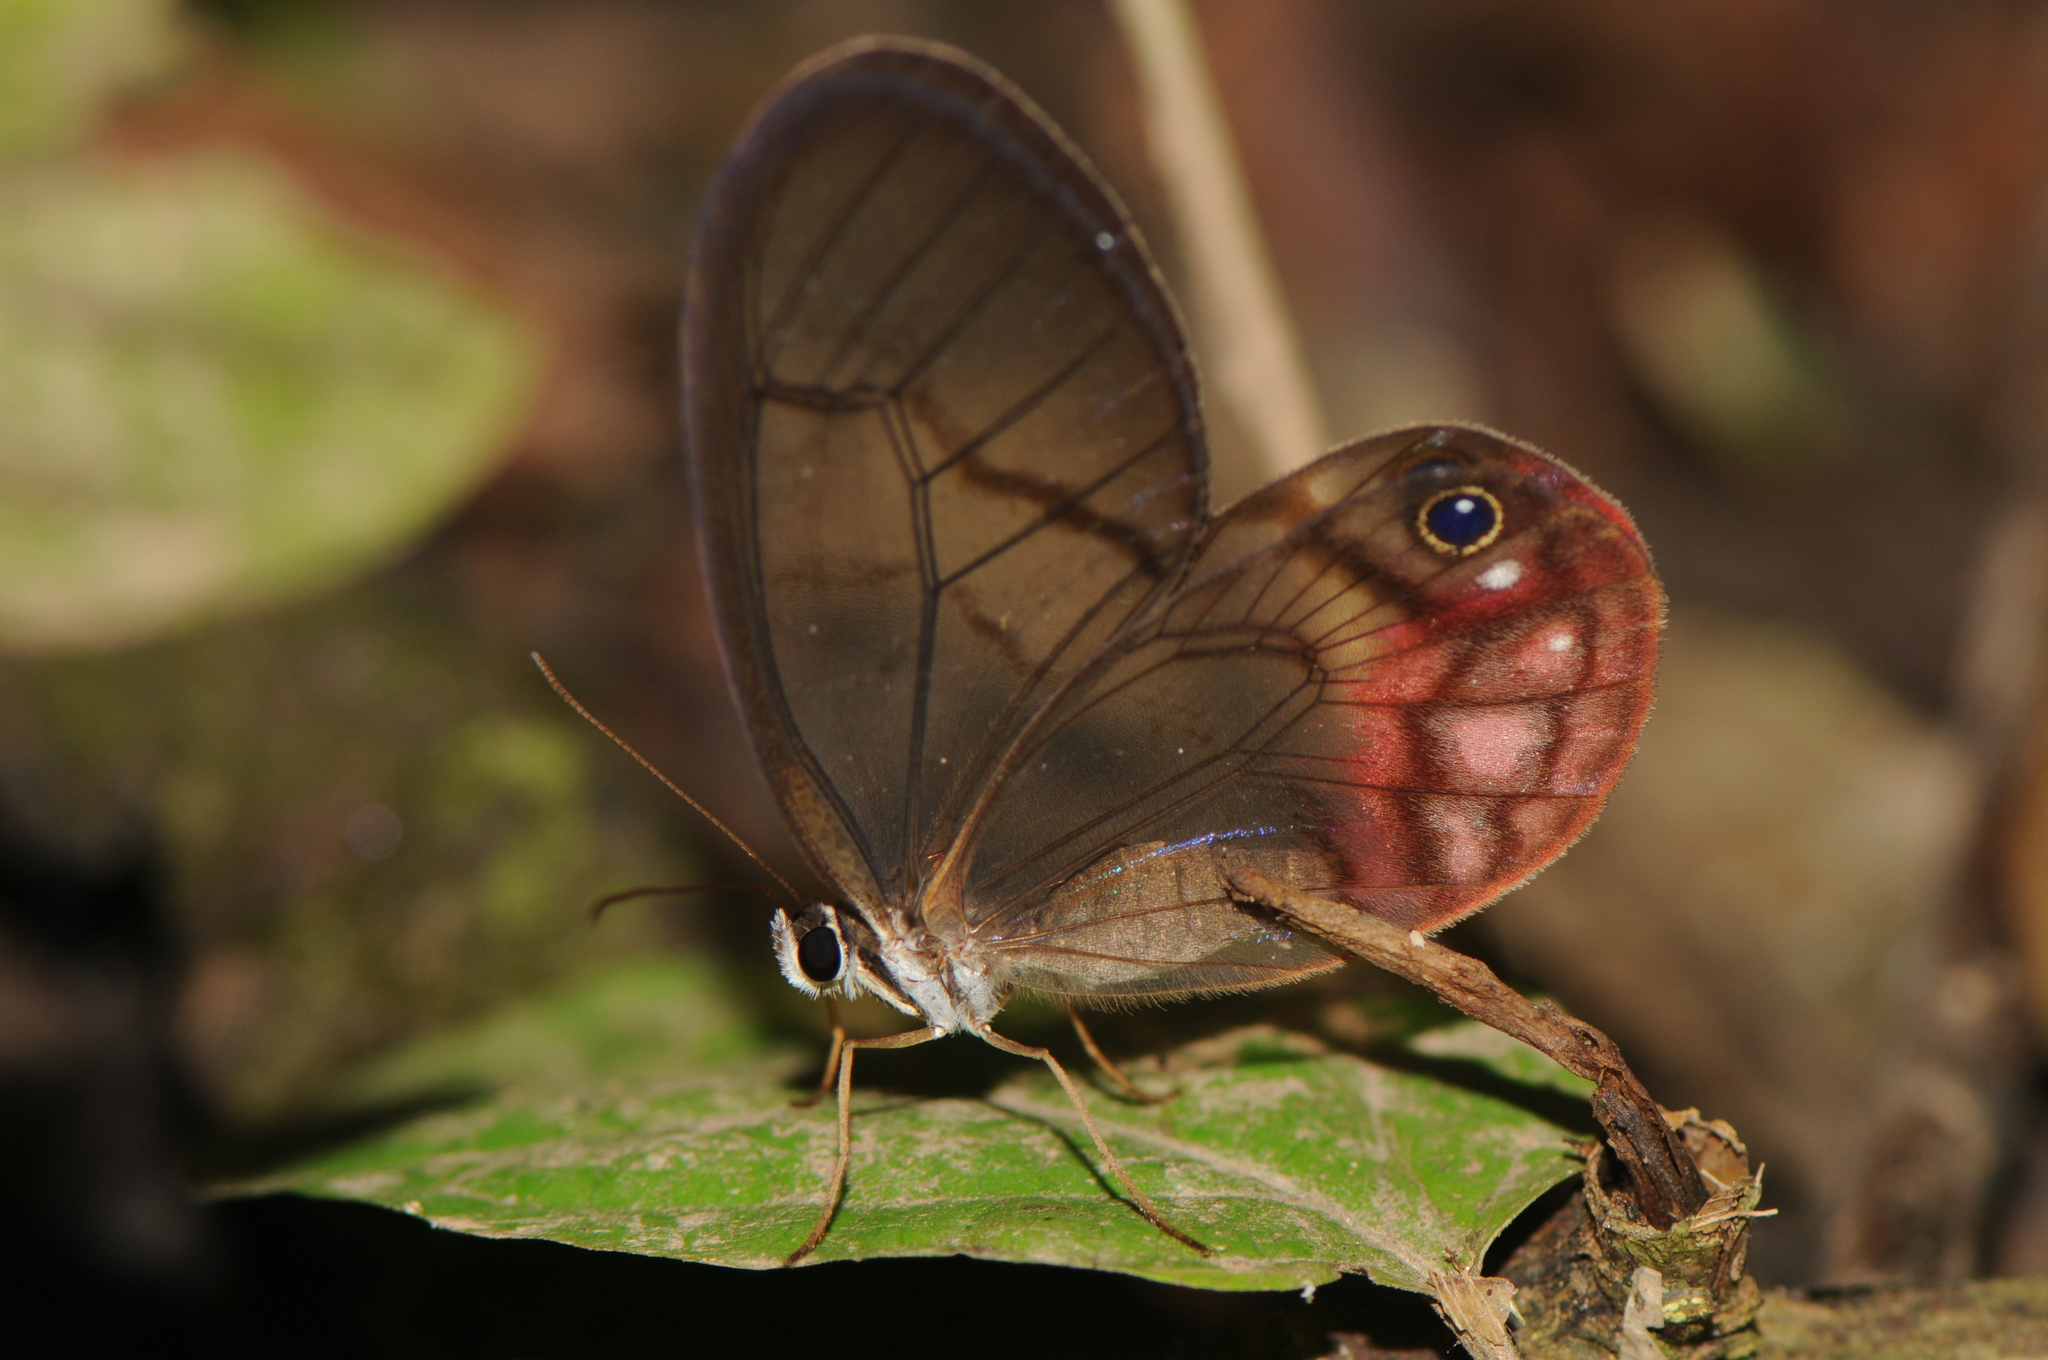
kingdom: Animalia
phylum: Arthropoda
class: Insecta
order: Lepidoptera
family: Nymphalidae
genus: Cithaerias
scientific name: Cithaerias pireta
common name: Rusted clearwing-satyr
